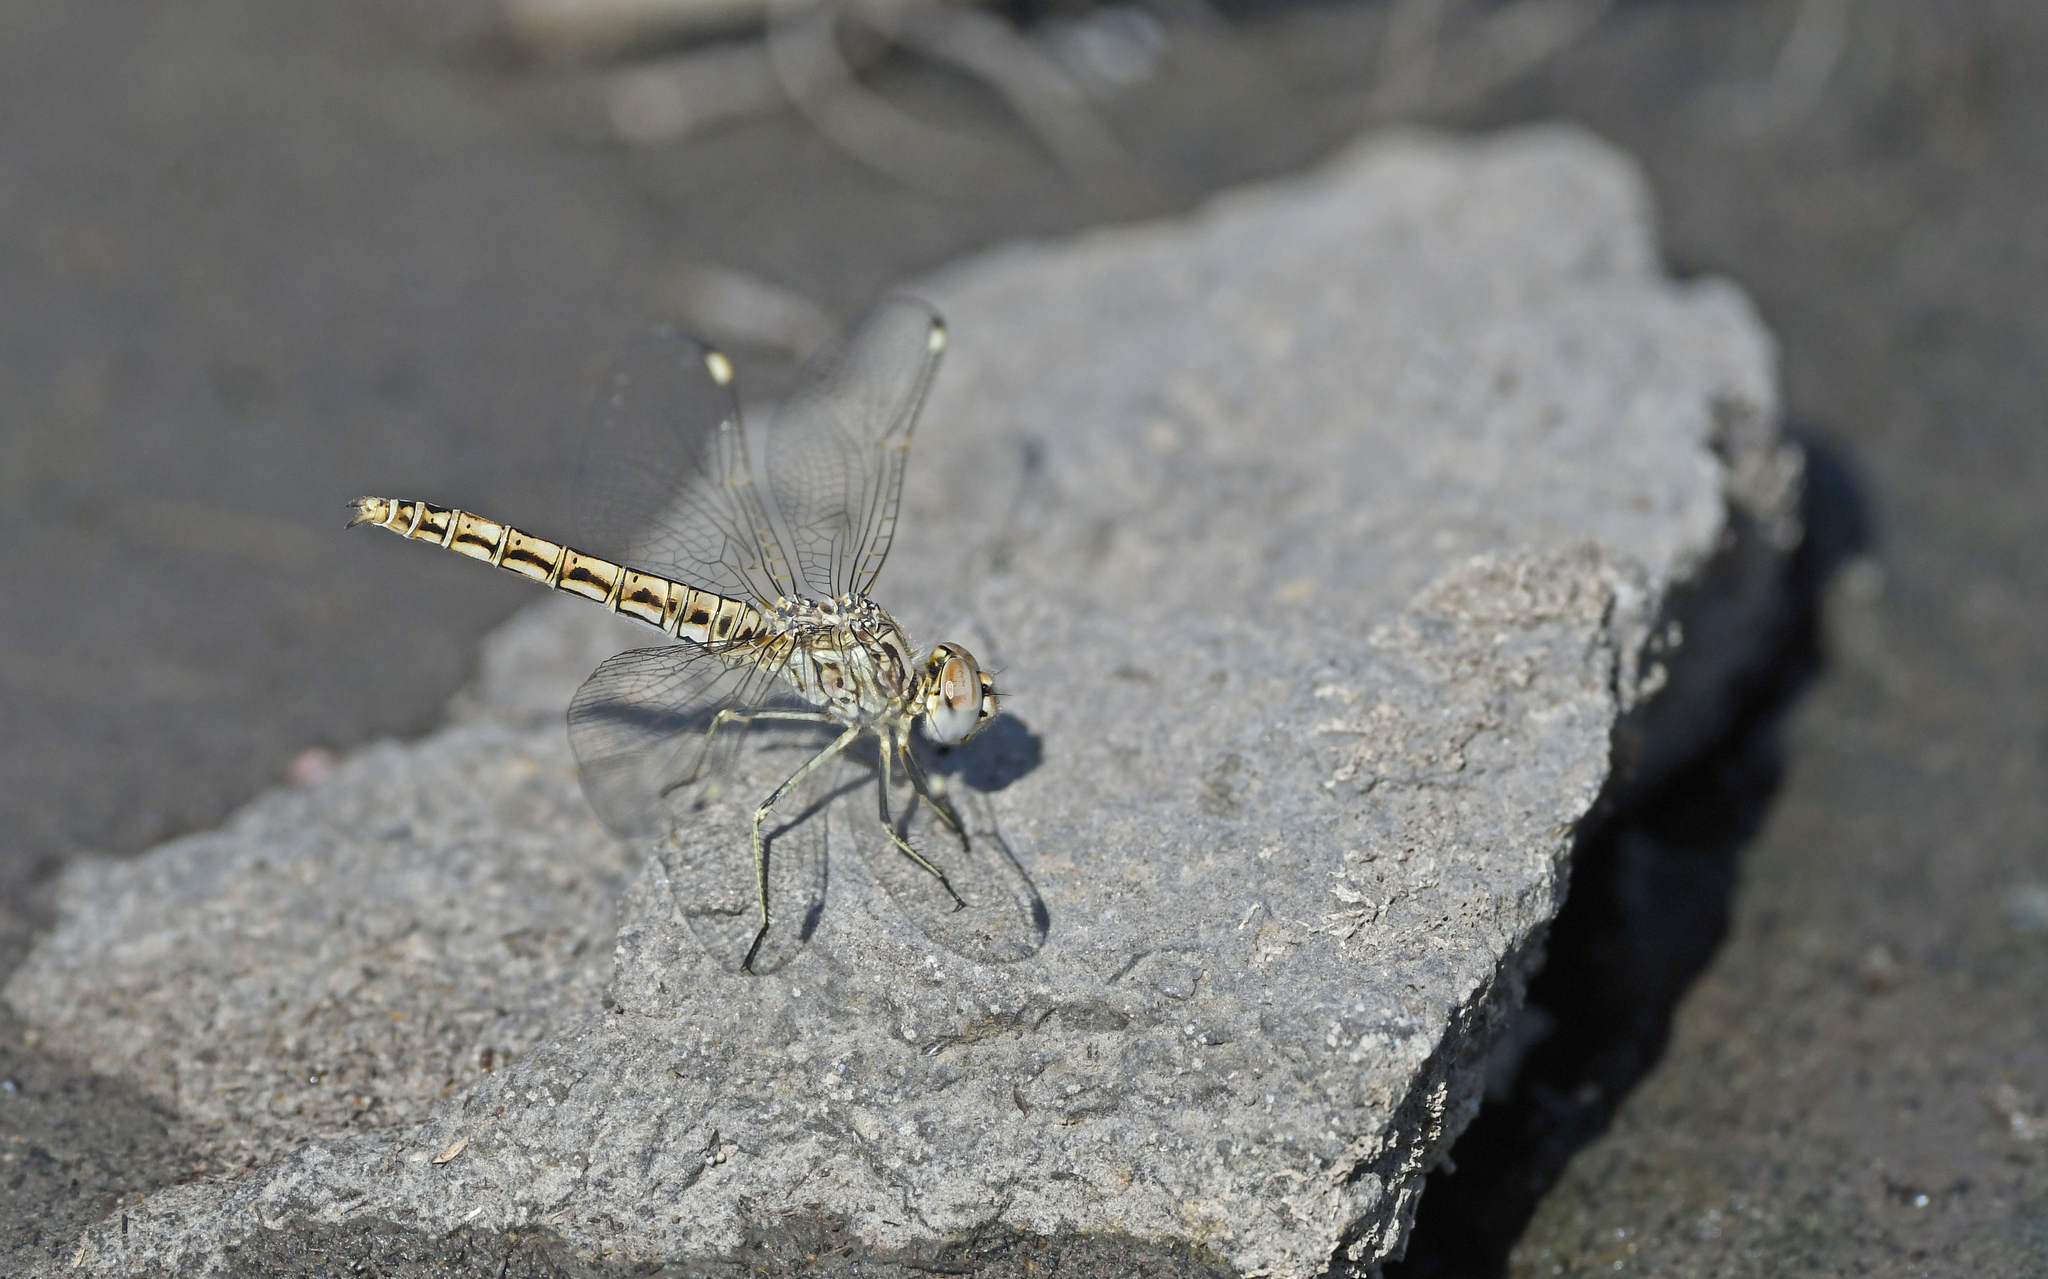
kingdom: Animalia
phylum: Arthropoda
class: Insecta
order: Odonata
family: Libellulidae
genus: Brachythemis
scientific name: Brachythemis impartita
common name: Banded groundling
